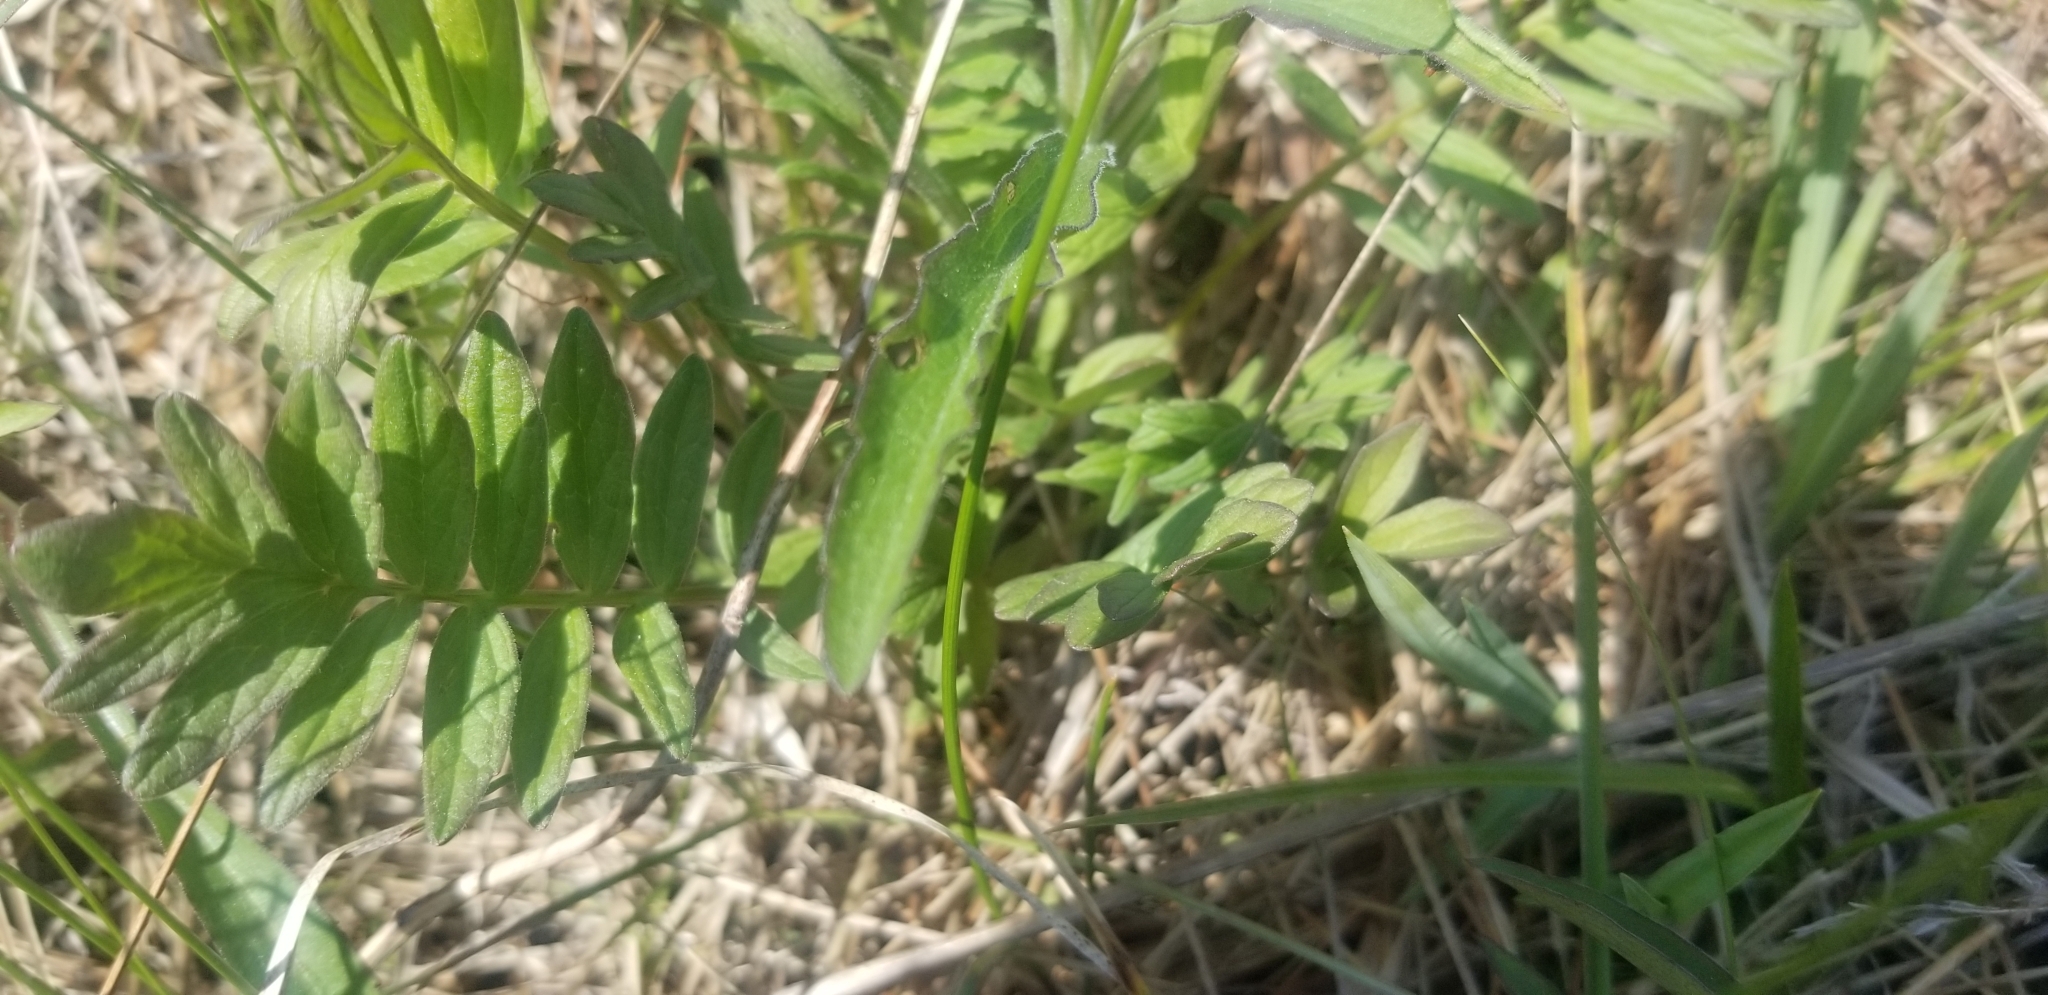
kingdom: Plantae
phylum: Tracheophyta
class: Magnoliopsida
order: Dipsacales
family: Caprifoliaceae
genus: Valeriana
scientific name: Valeriana officinalis
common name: Common valerian
